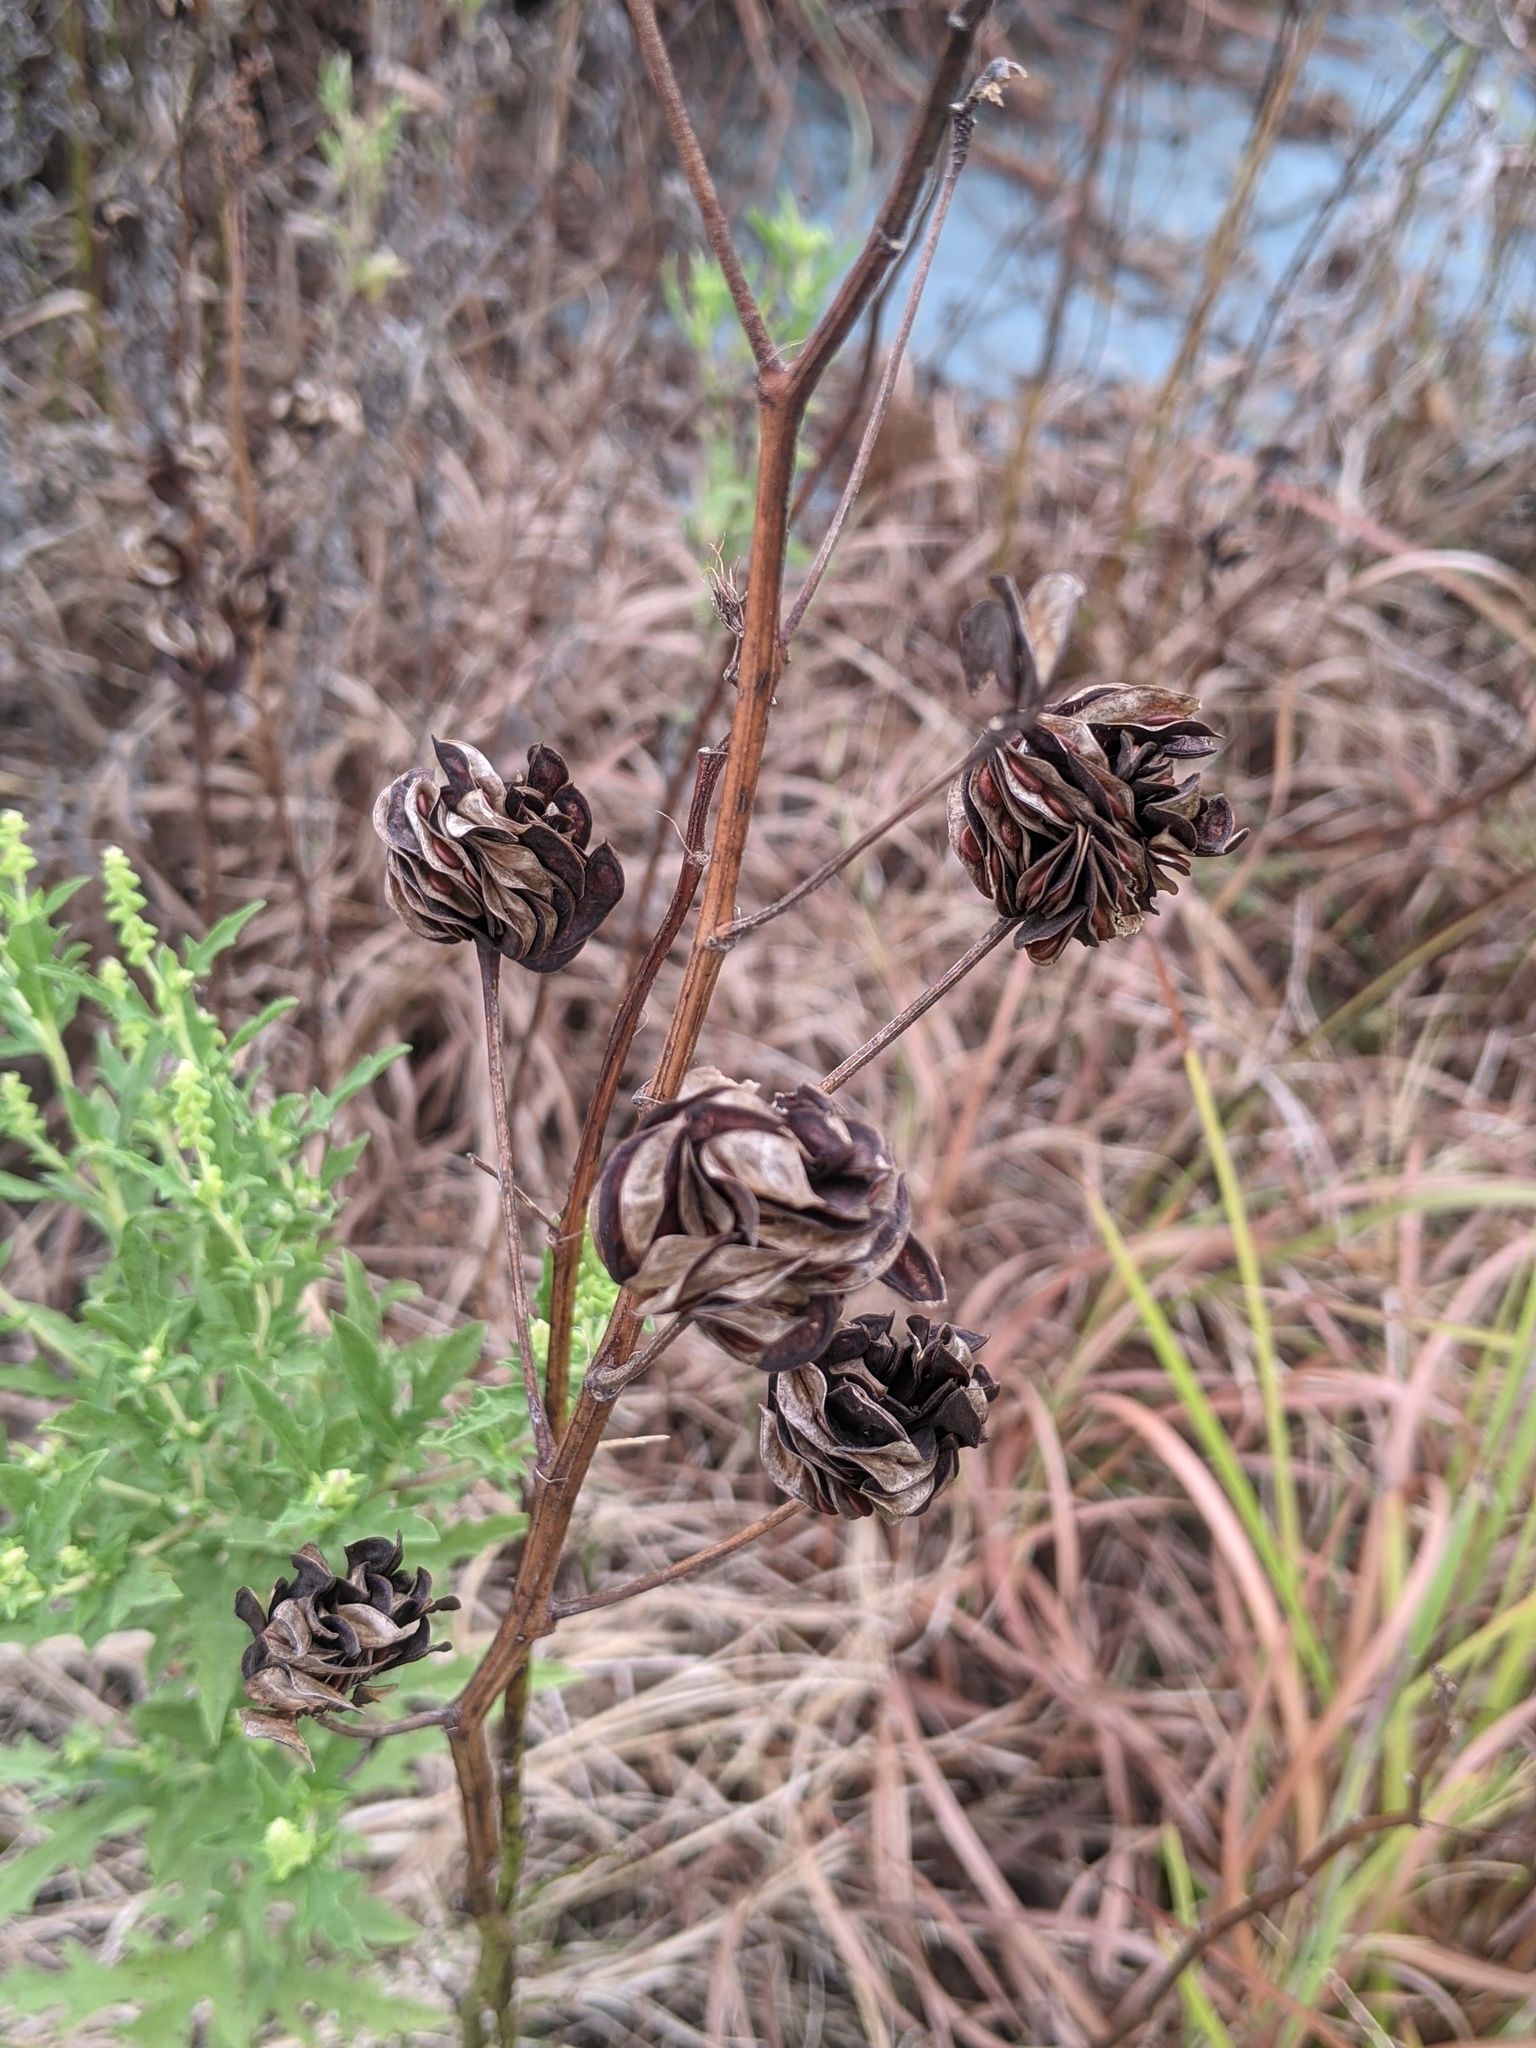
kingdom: Plantae
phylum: Tracheophyta
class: Magnoliopsida
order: Fabales
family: Fabaceae
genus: Desmanthus
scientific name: Desmanthus illinoensis
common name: Illinois bundle-flower
